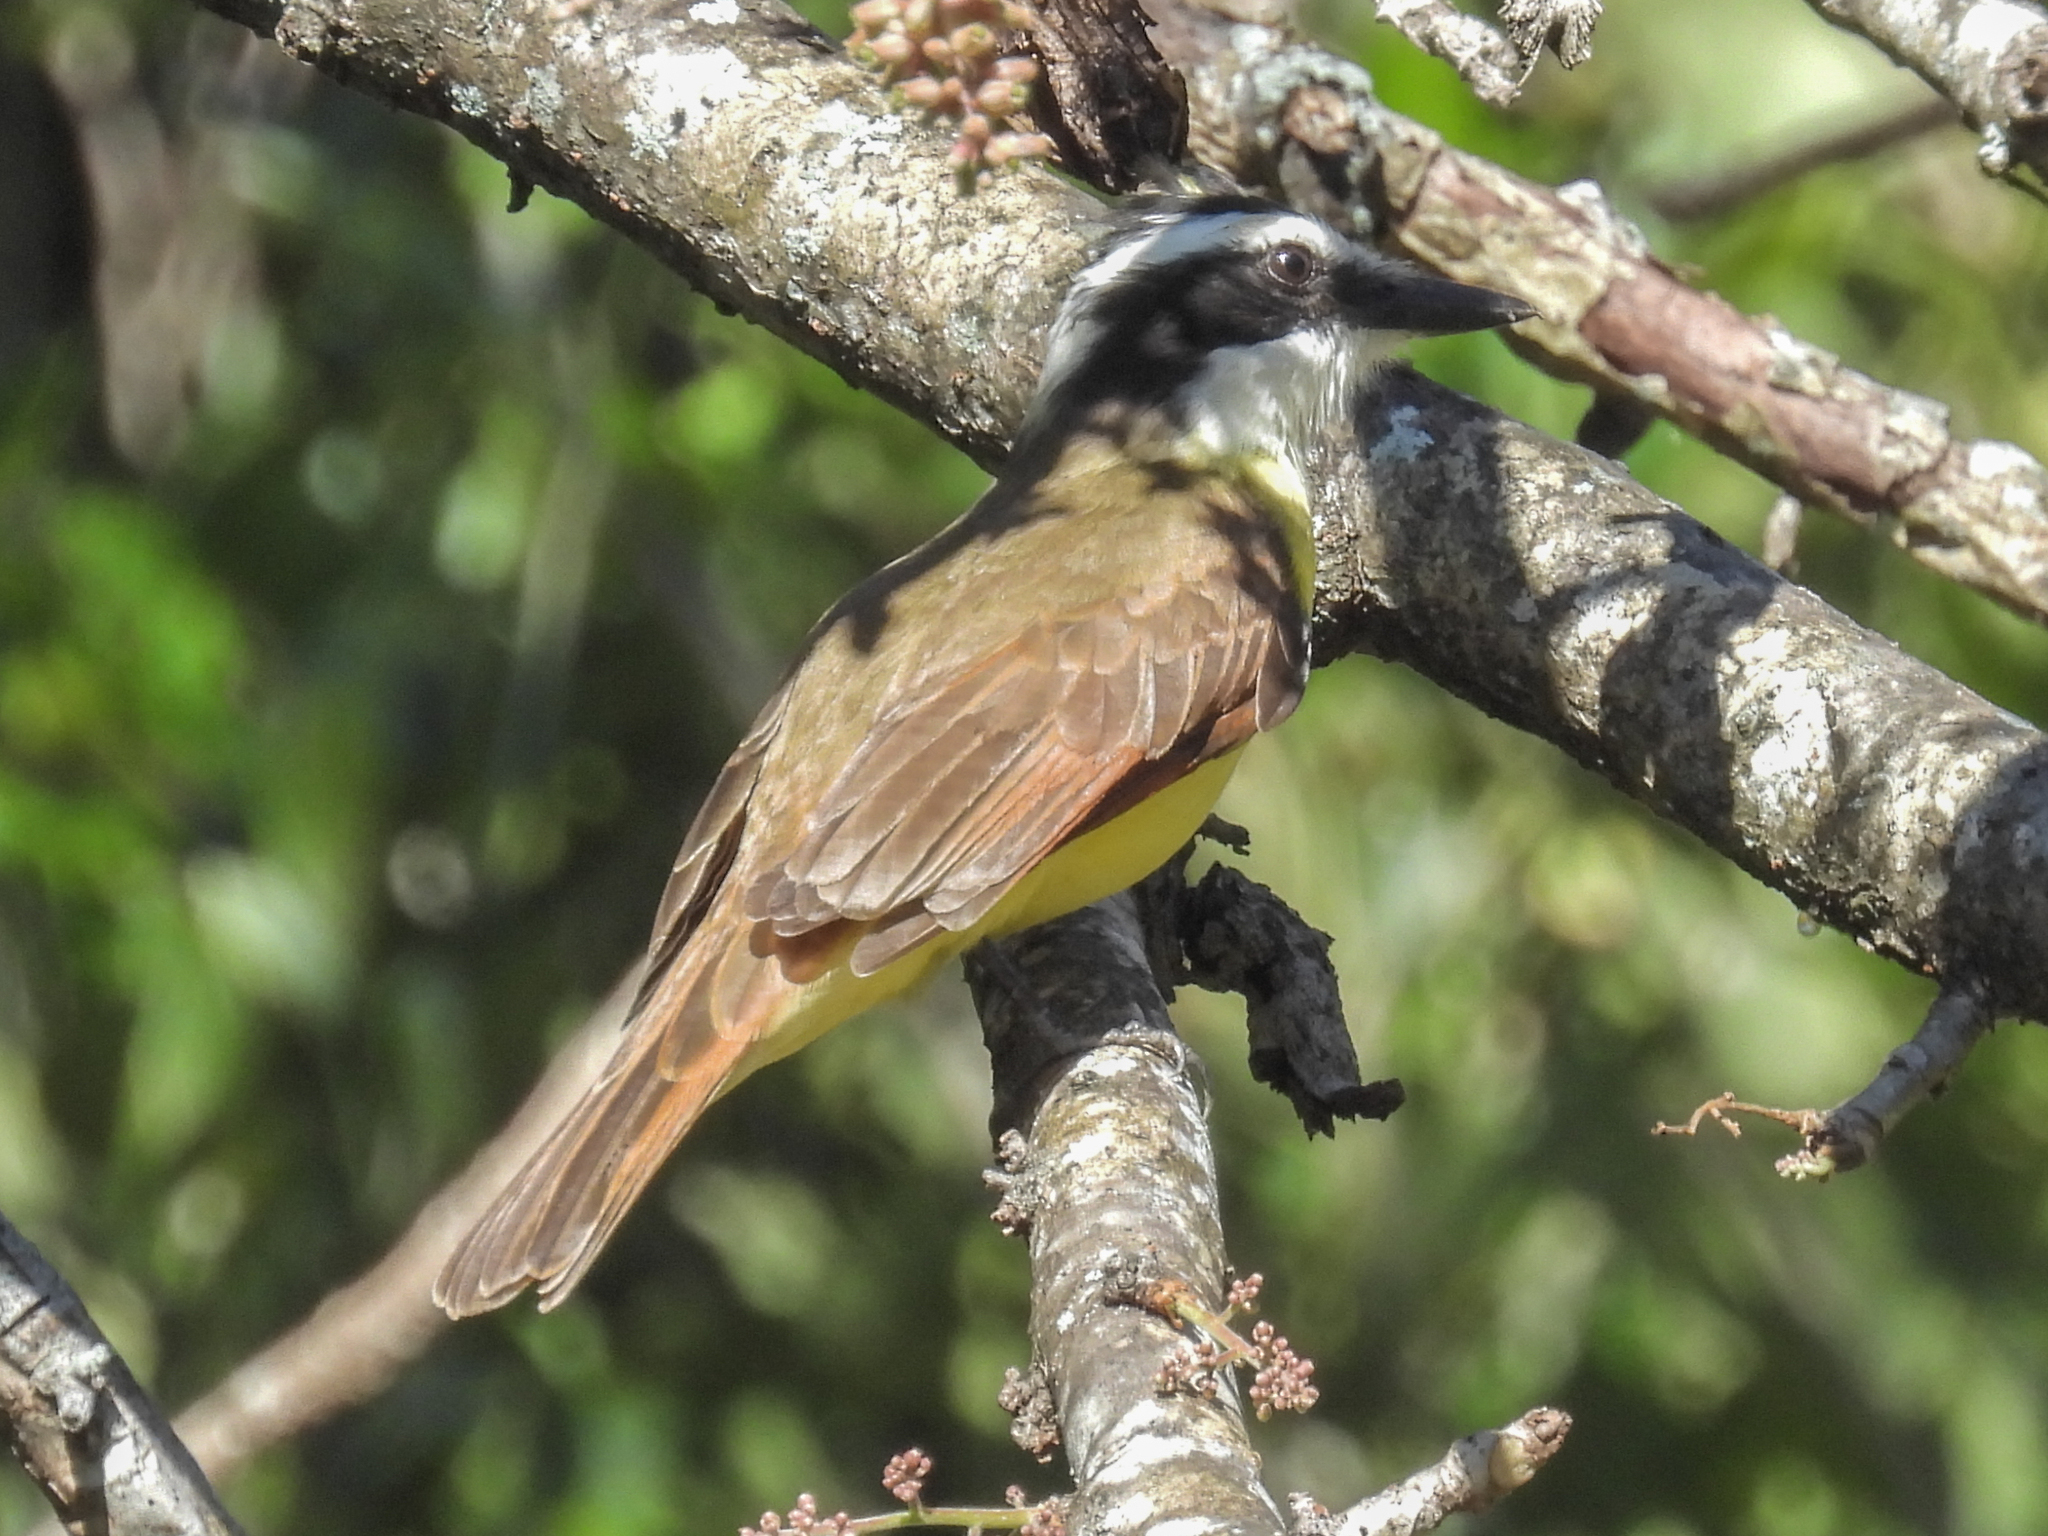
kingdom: Animalia
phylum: Chordata
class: Aves
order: Passeriformes
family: Tyrannidae
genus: Pitangus
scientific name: Pitangus sulphuratus
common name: Great kiskadee
